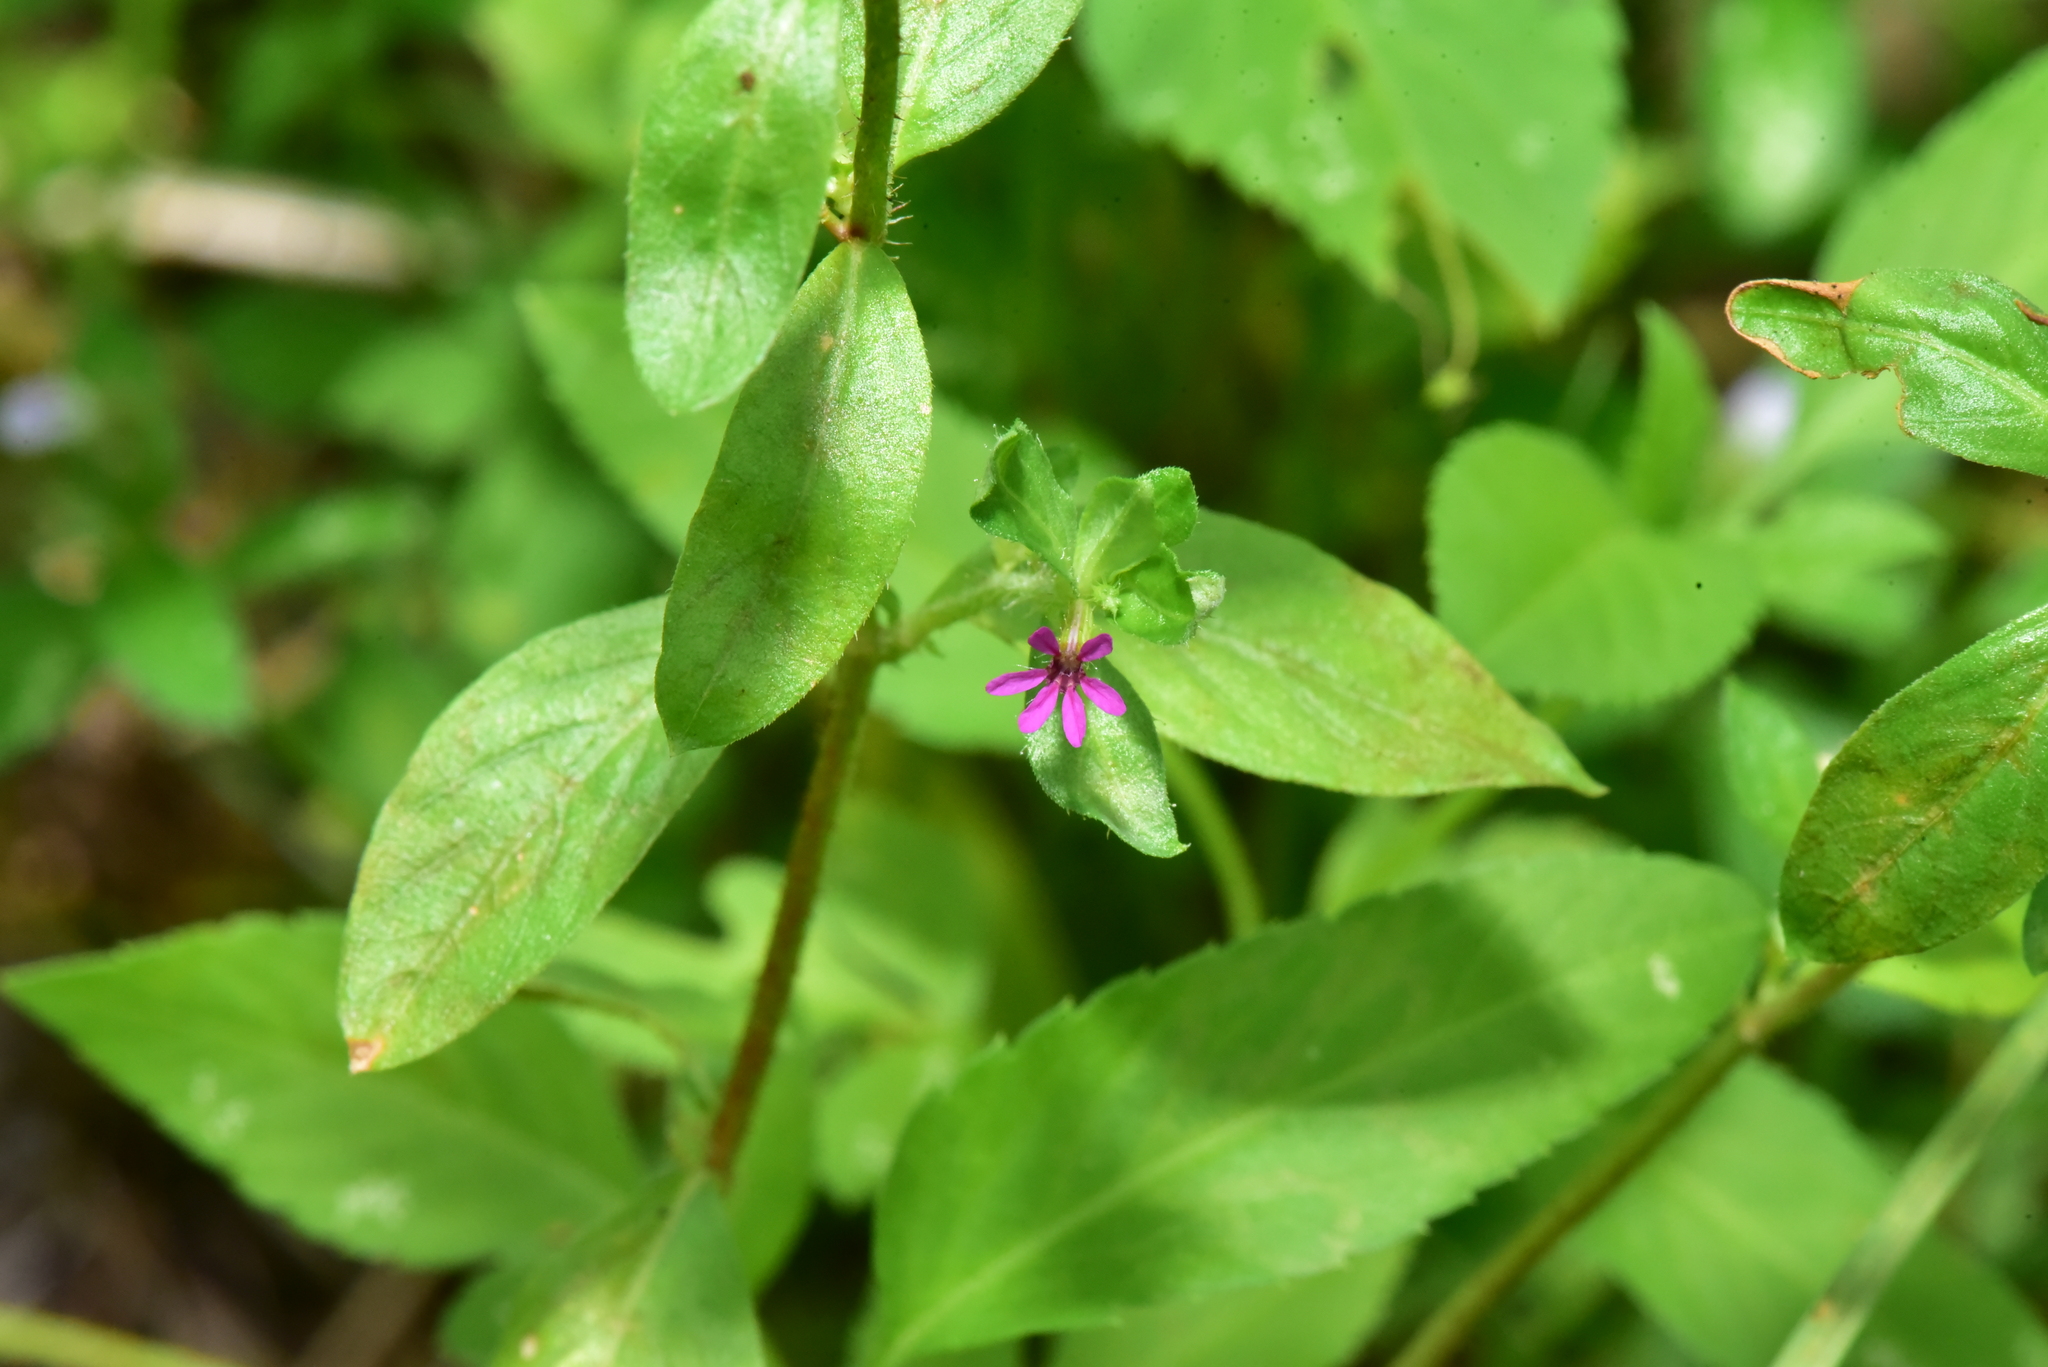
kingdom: Plantae
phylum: Tracheophyta
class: Magnoliopsida
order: Myrtales
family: Lythraceae
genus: Cuphea
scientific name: Cuphea carthagenensis
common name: Colombian waxweed
